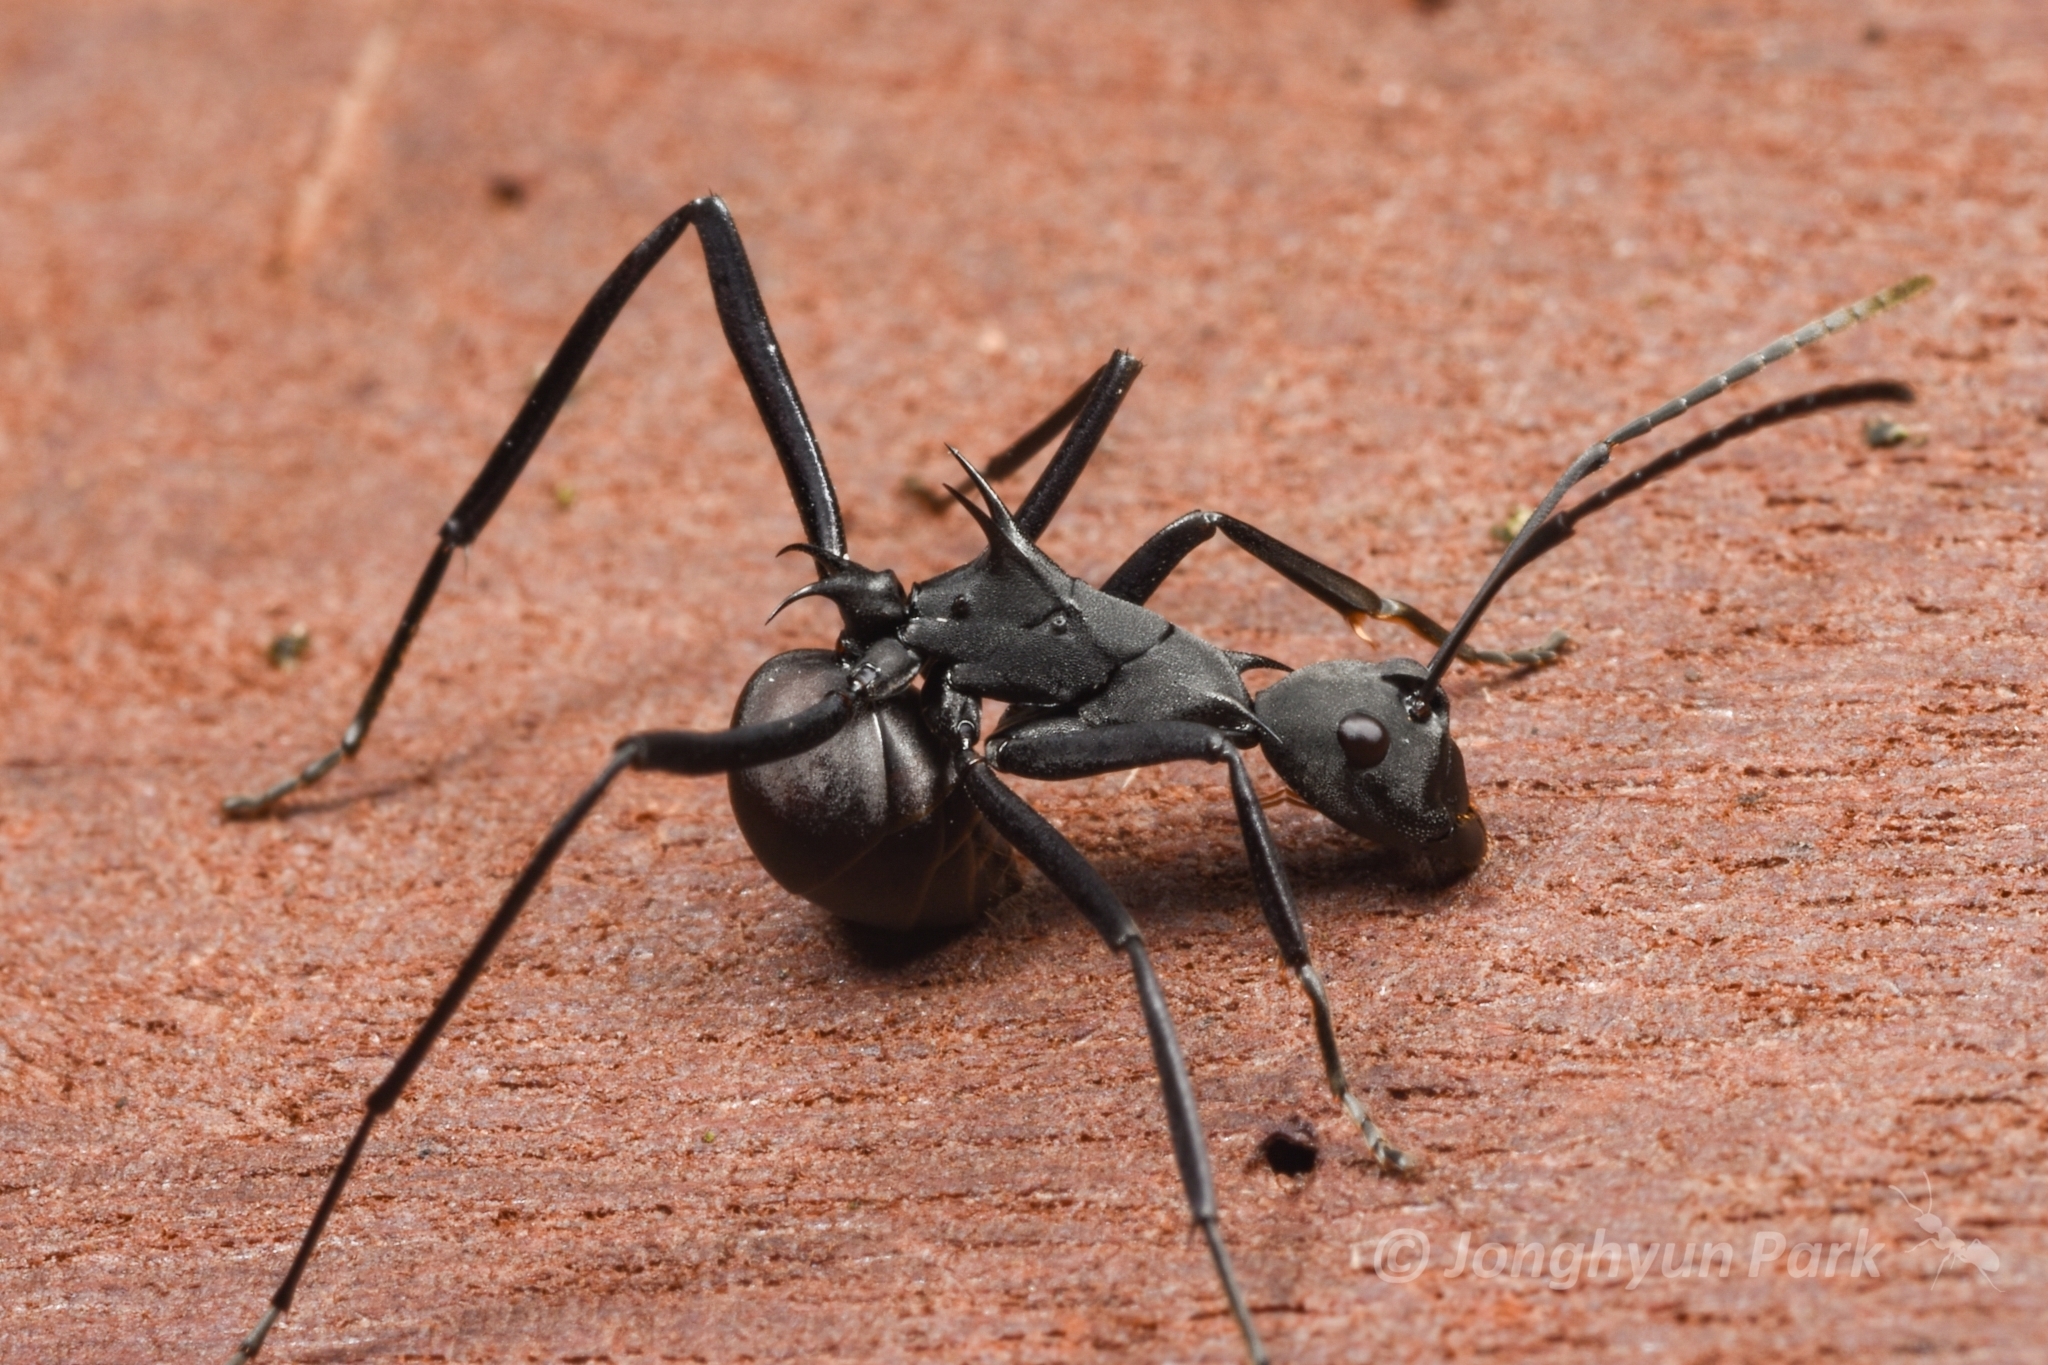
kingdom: Animalia
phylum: Arthropoda
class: Insecta
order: Hymenoptera
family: Formicidae
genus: Polyrhachis
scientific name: Polyrhachis abdominalis
